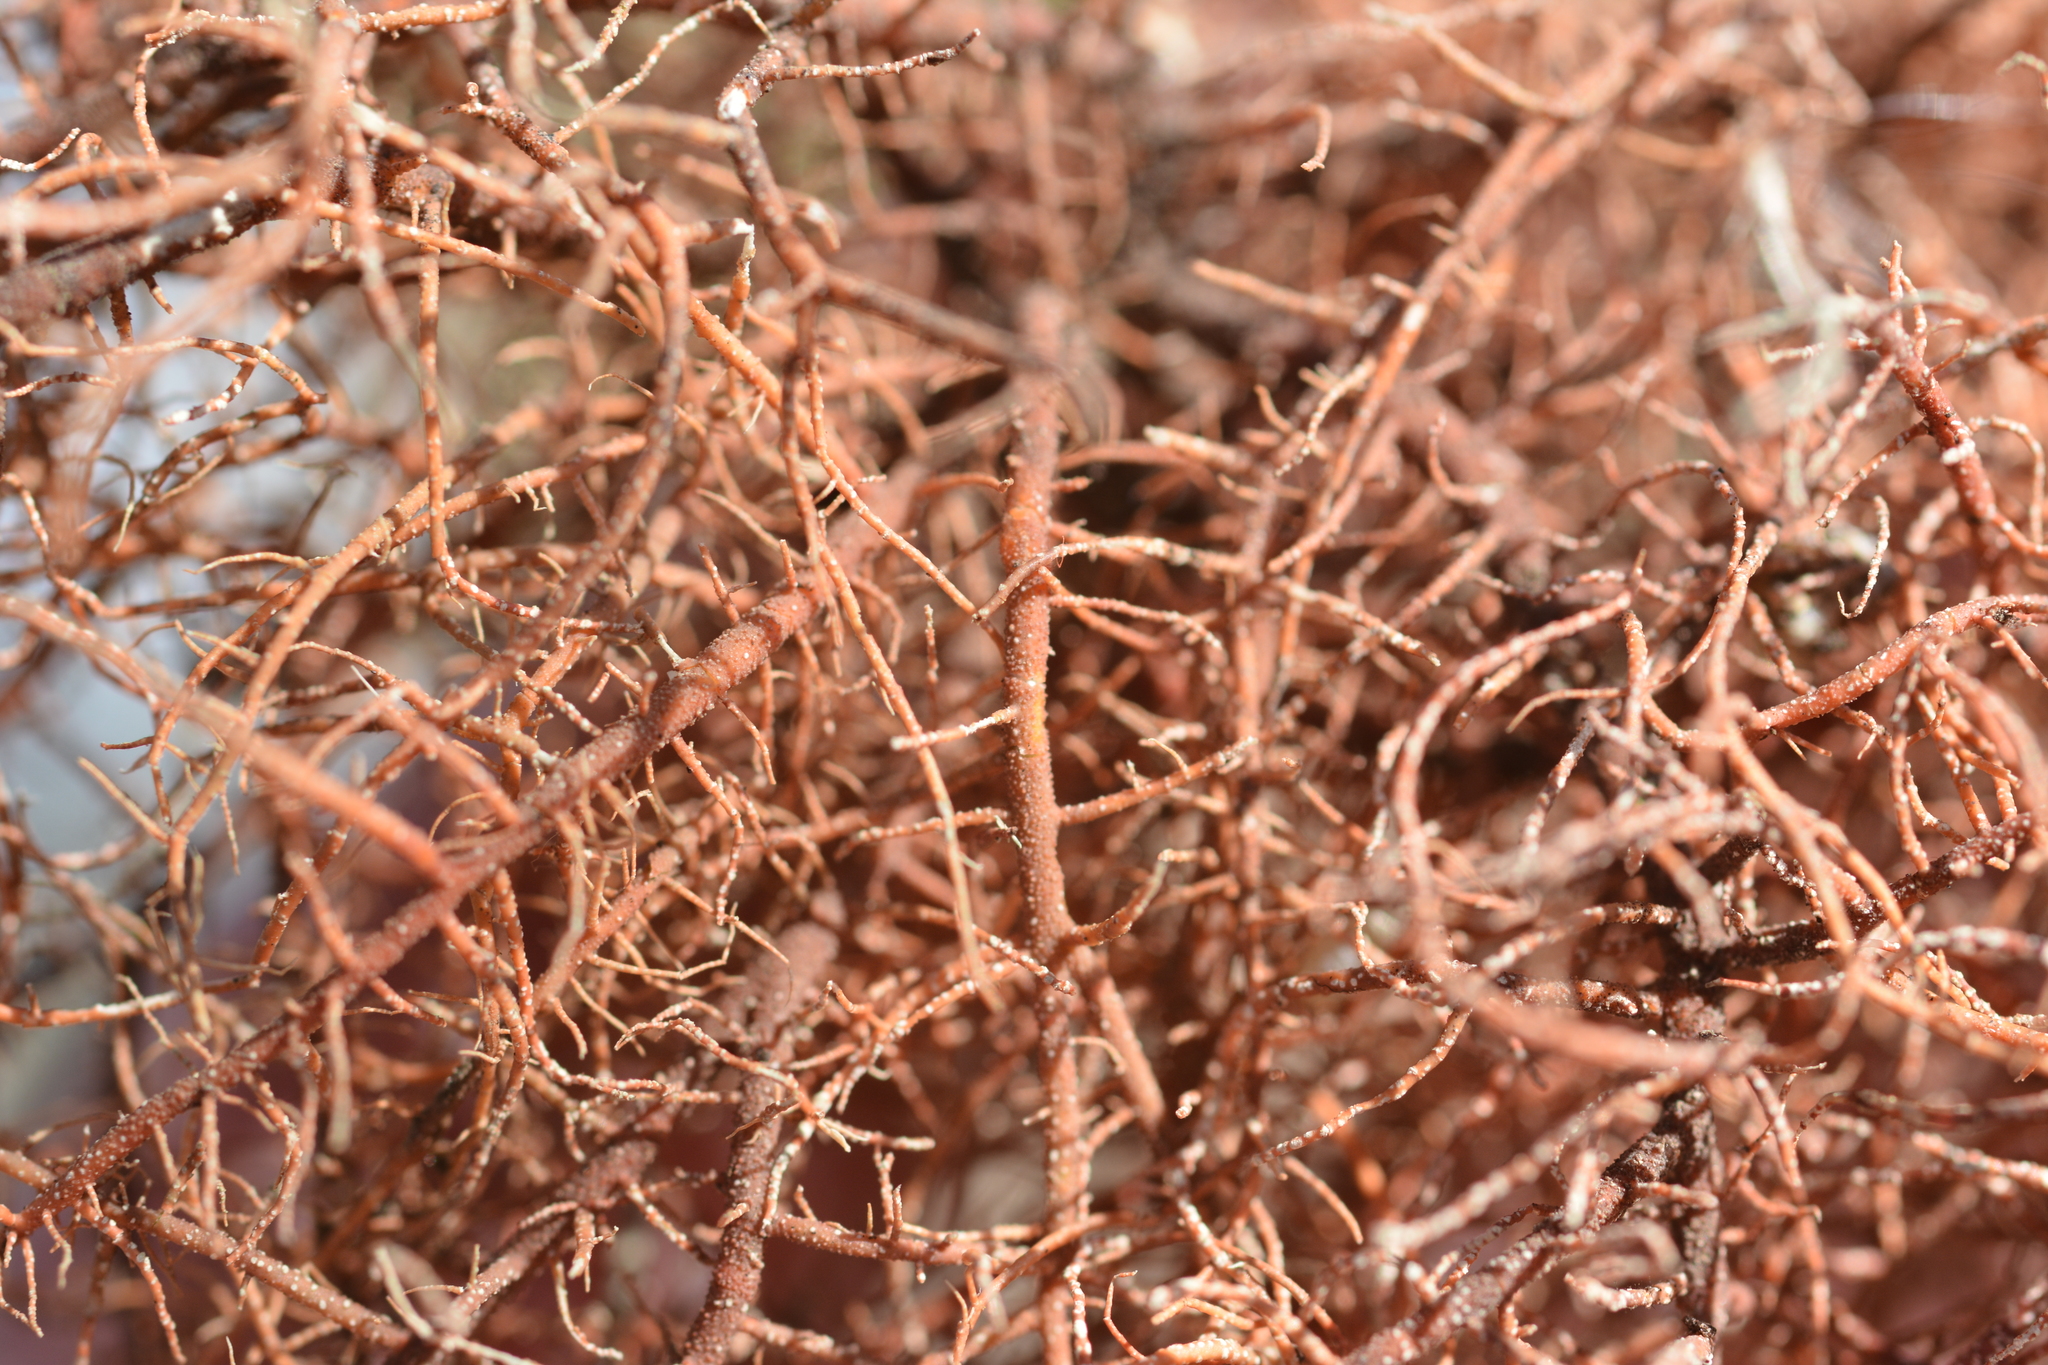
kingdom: Fungi
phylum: Ascomycota
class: Lecanoromycetes
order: Lecanorales
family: Parmeliaceae
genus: Usnea
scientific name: Usnea rubicunda
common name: Red beard lichen
